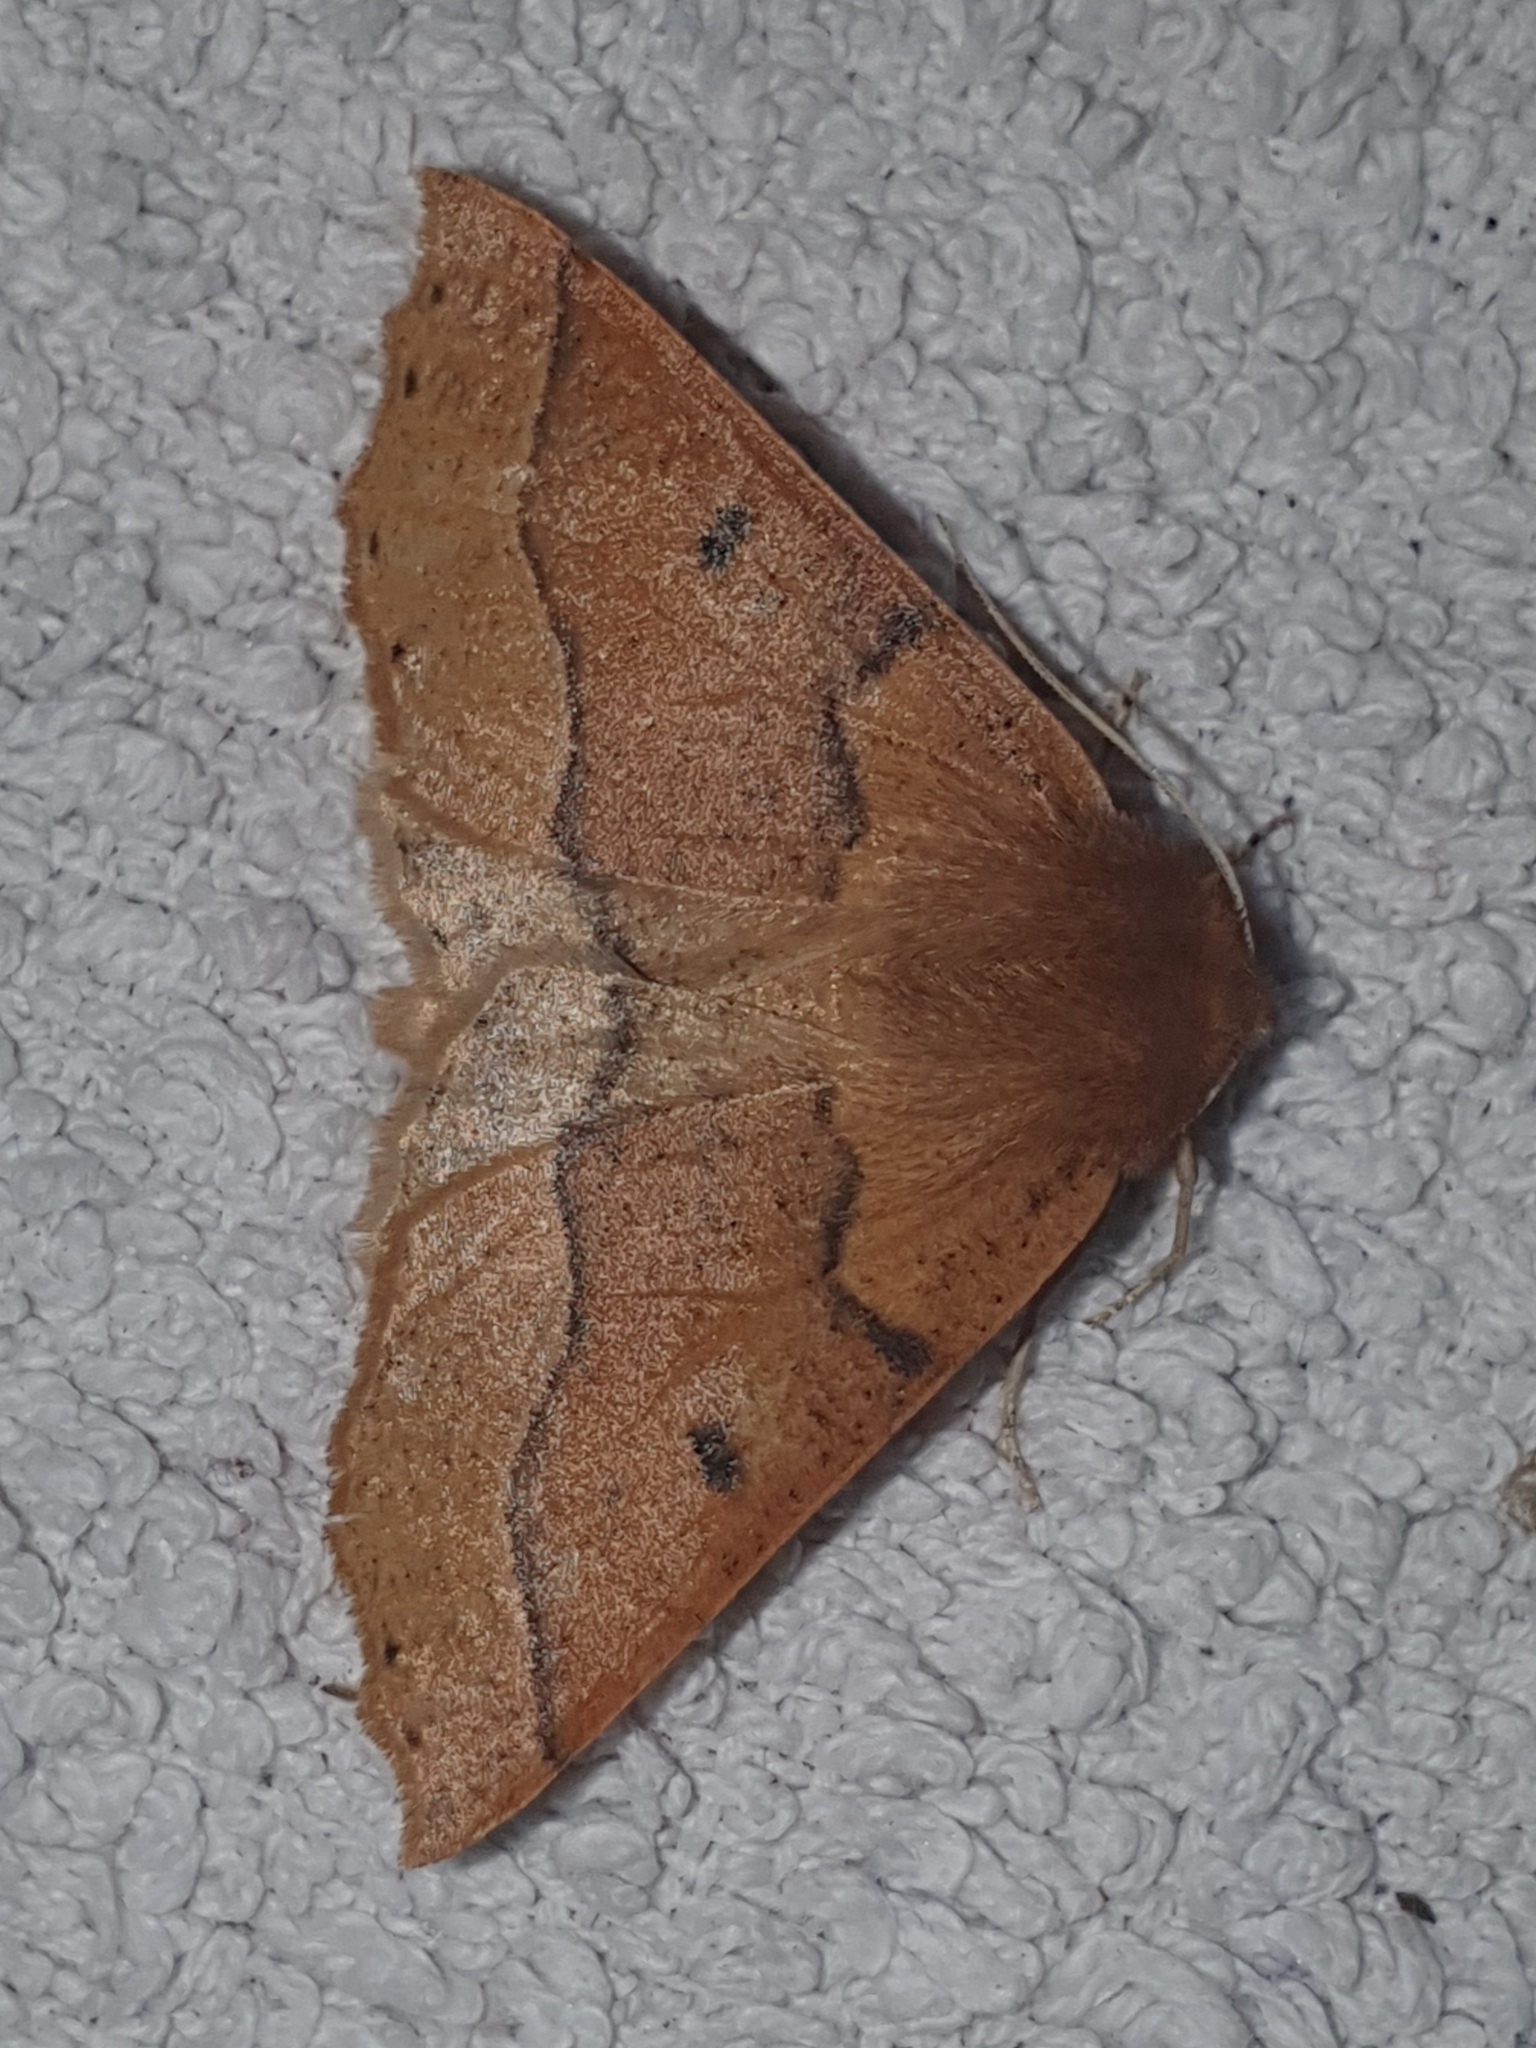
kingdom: Animalia
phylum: Arthropoda
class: Insecta
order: Lepidoptera
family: Geometridae
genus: Crocallis
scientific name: Crocallis tusciaria
